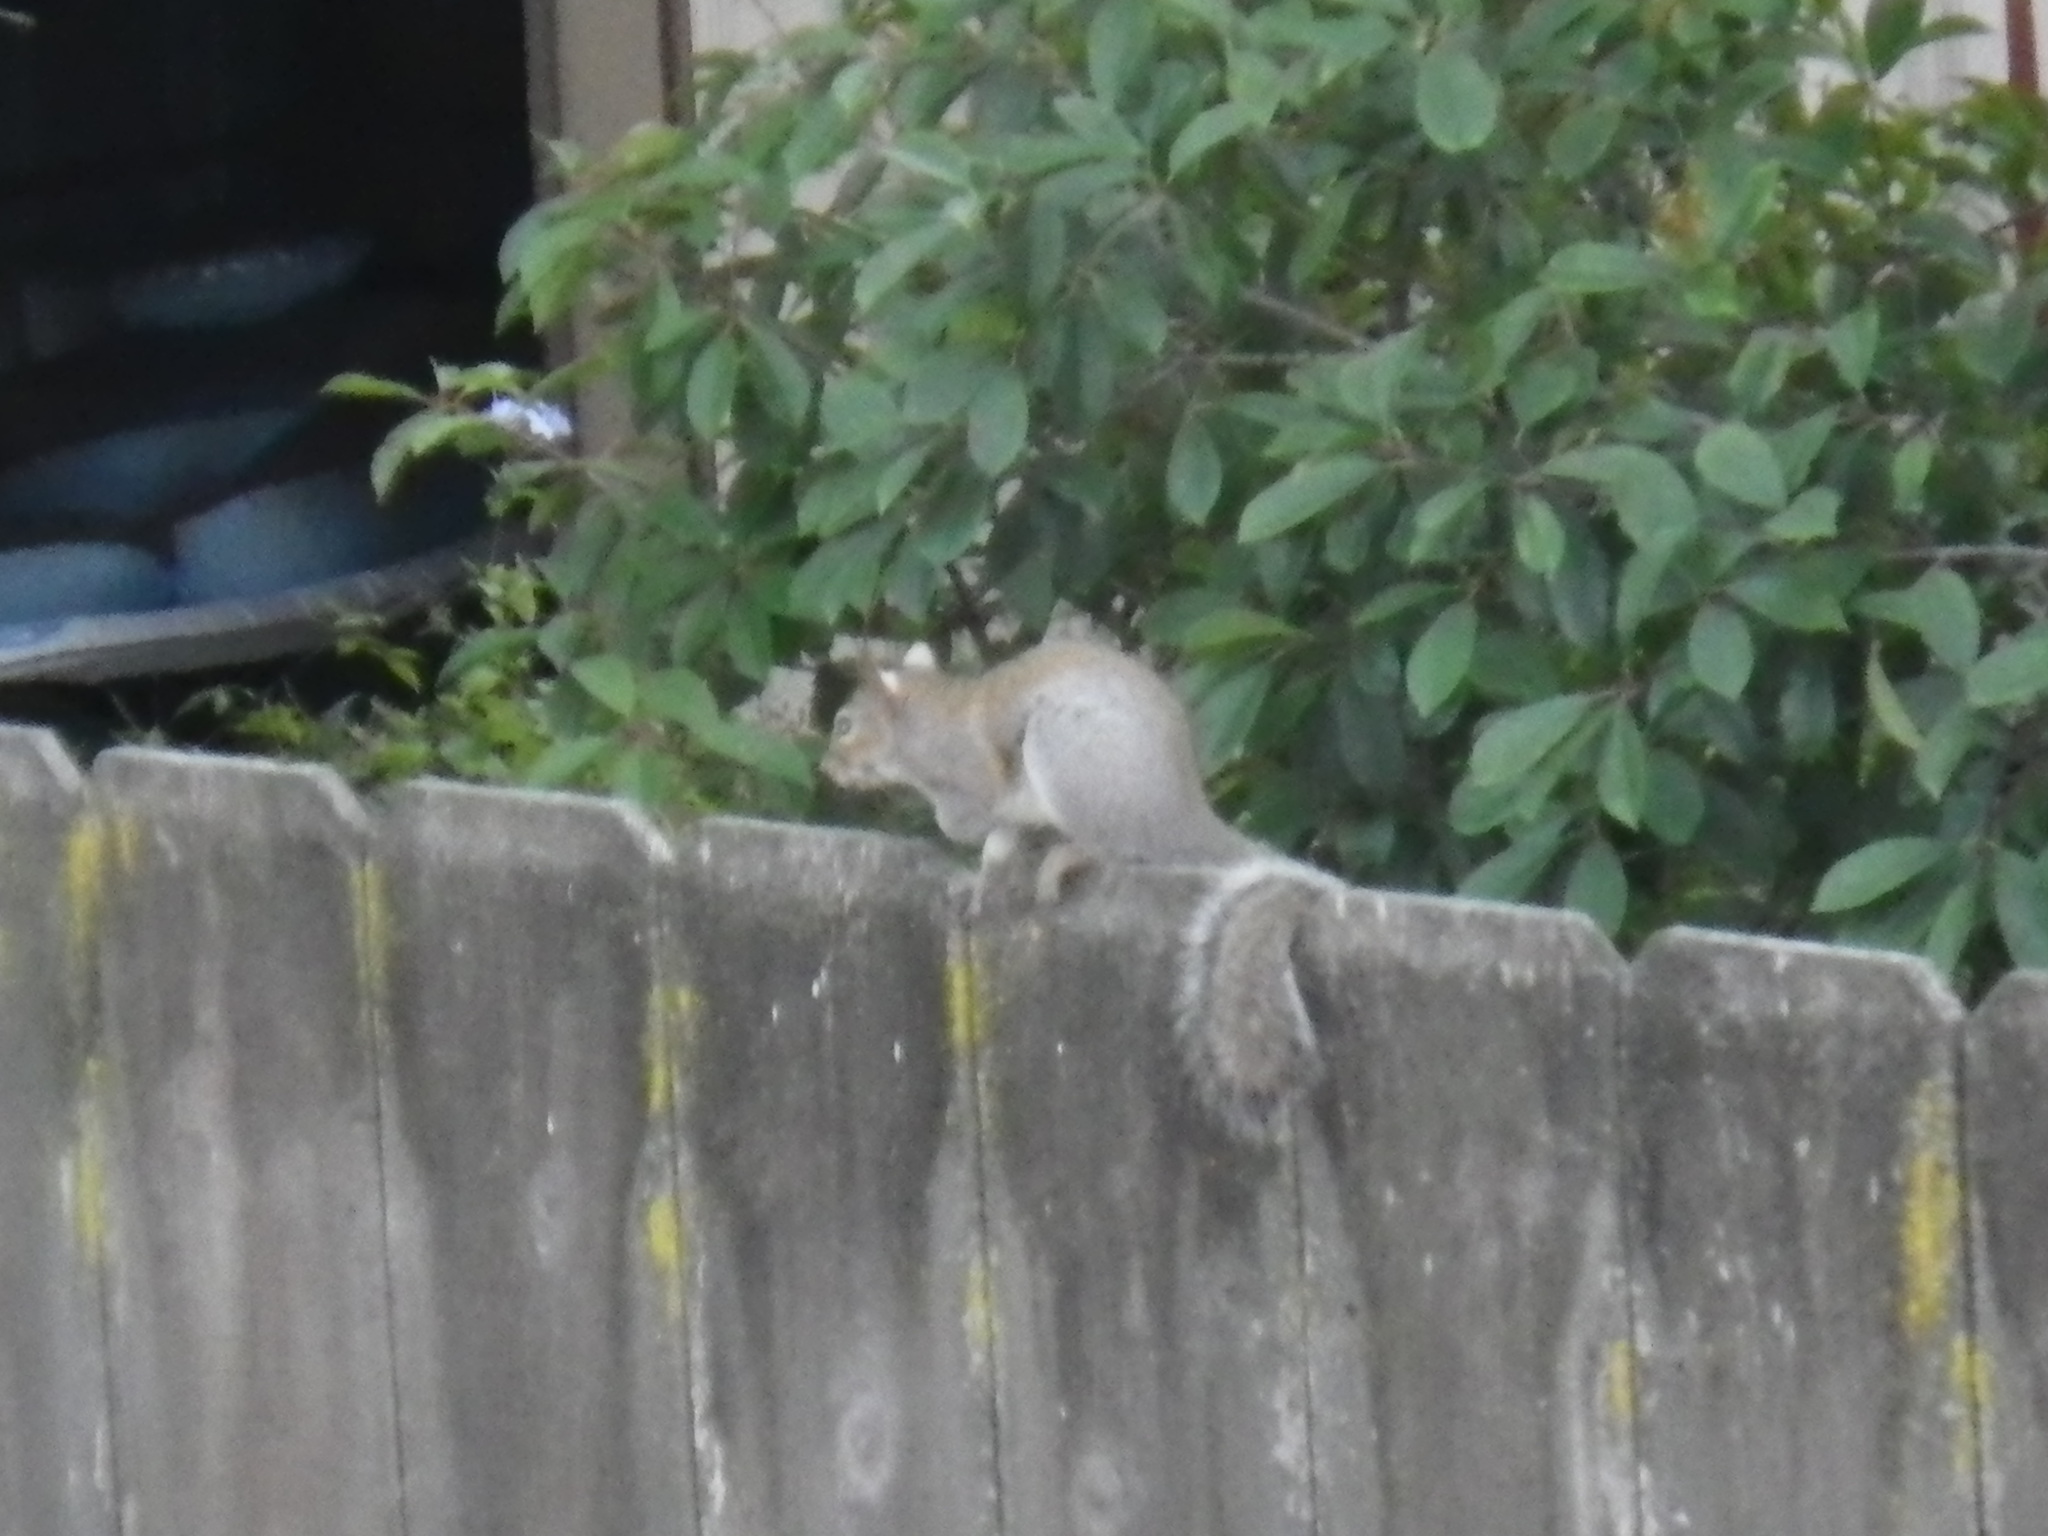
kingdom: Animalia
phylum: Chordata
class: Mammalia
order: Rodentia
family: Sciuridae
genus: Sciurus
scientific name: Sciurus carolinensis
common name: Eastern gray squirrel
